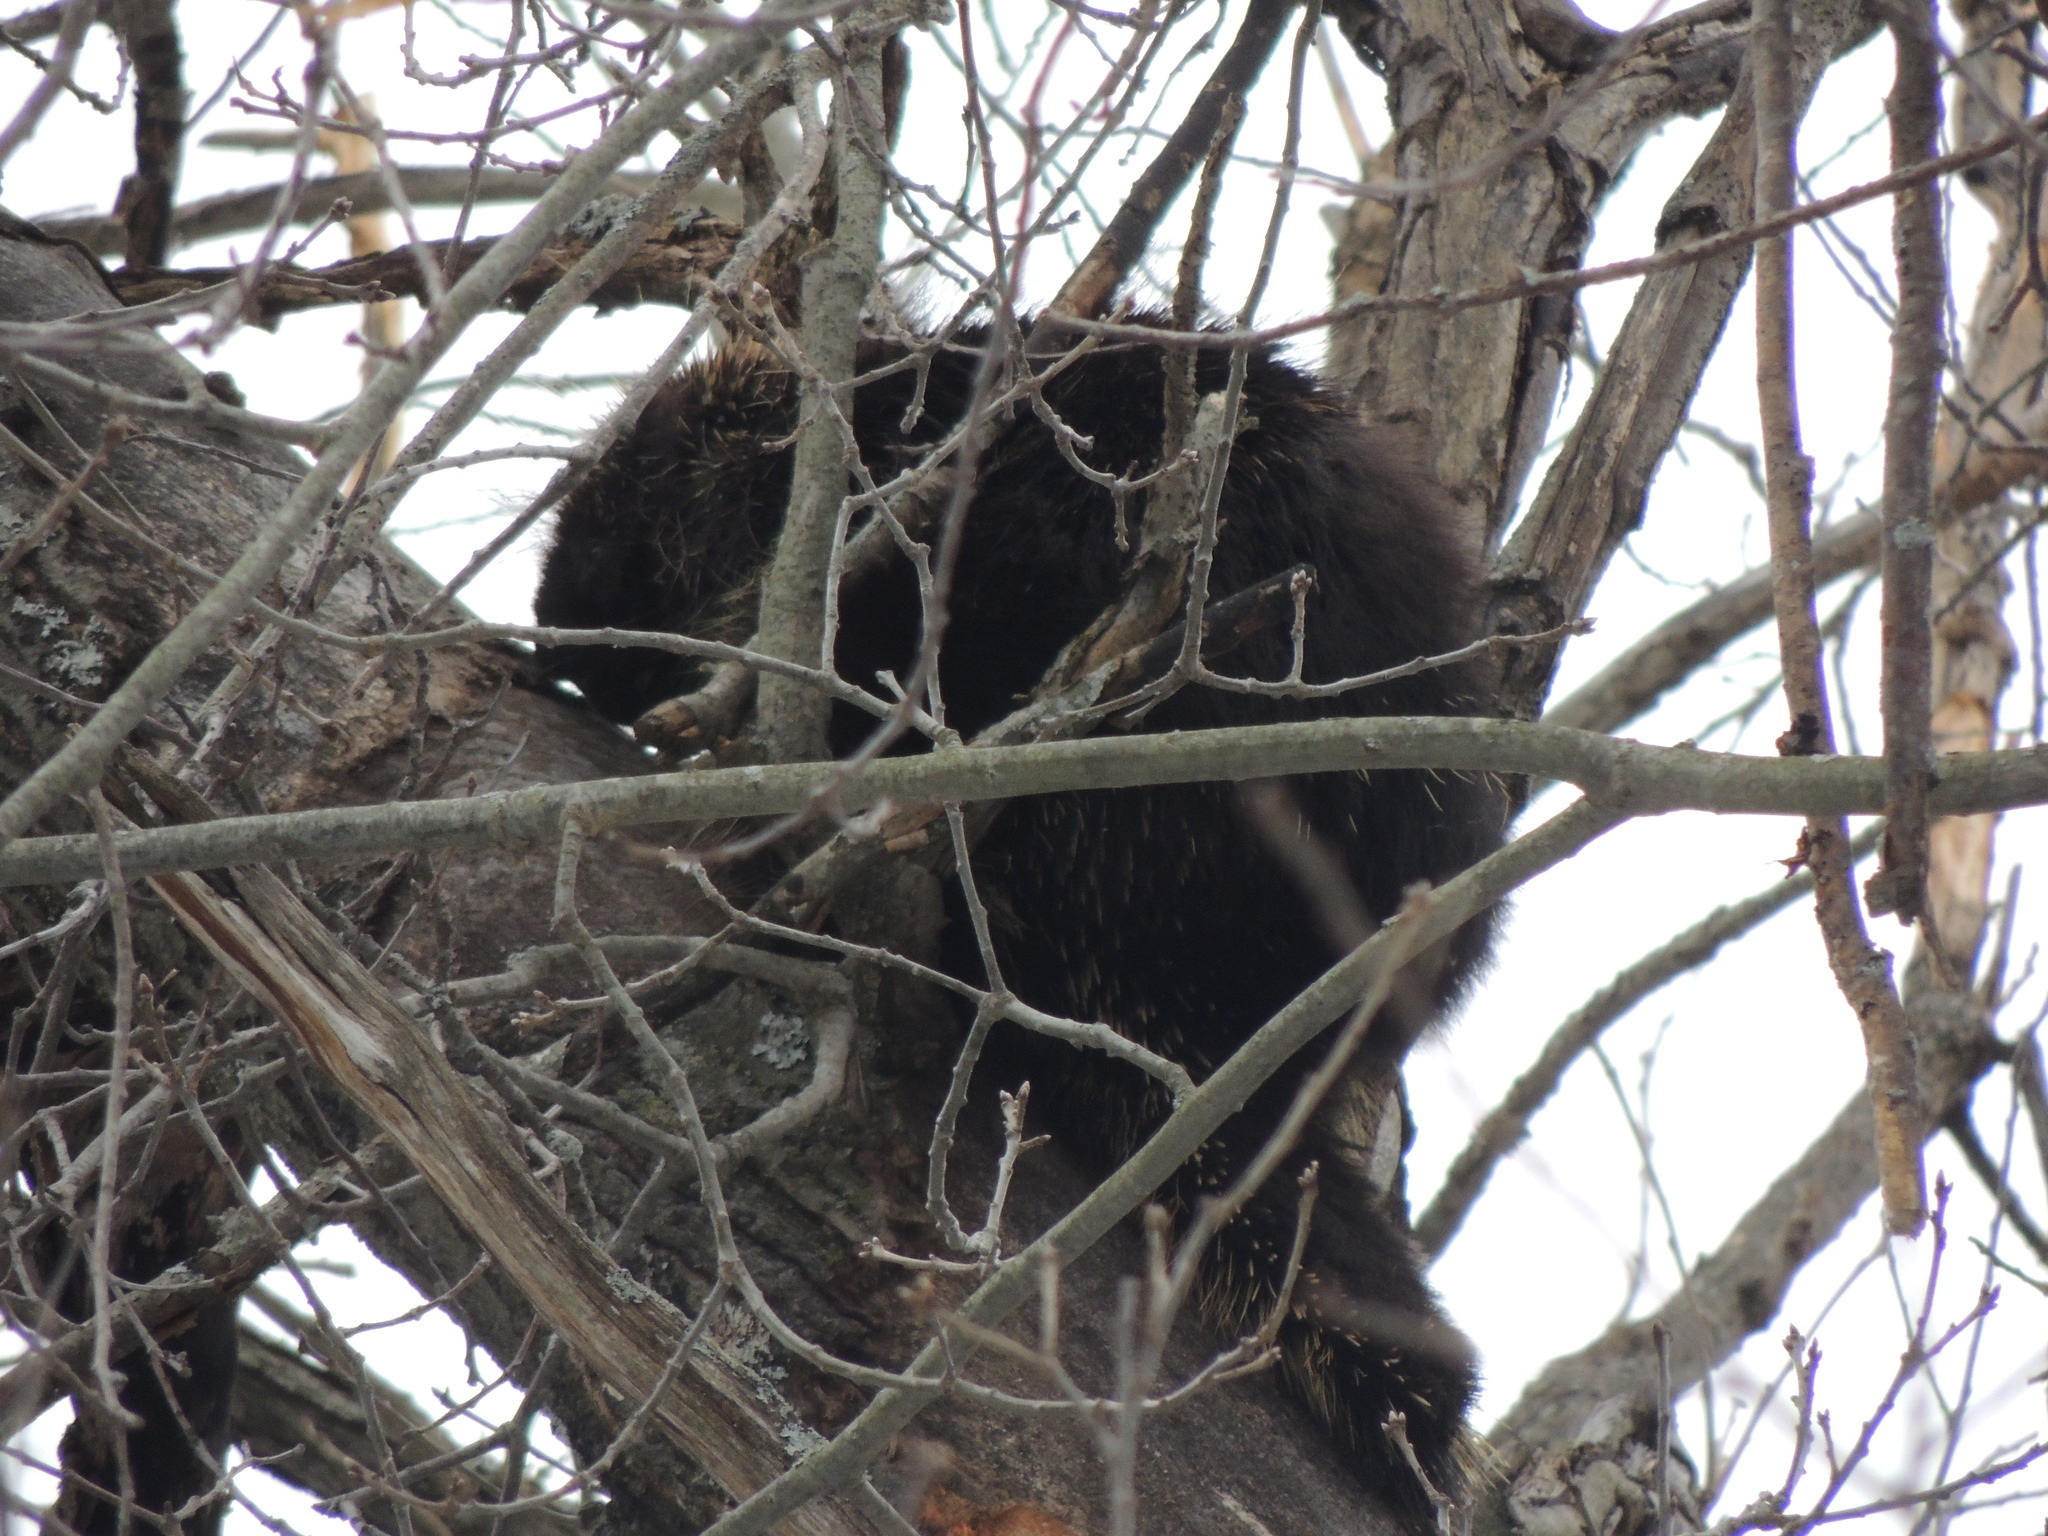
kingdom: Animalia
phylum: Chordata
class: Mammalia
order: Rodentia
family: Erethizontidae
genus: Erethizon
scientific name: Erethizon dorsatus
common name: North american porcupine
